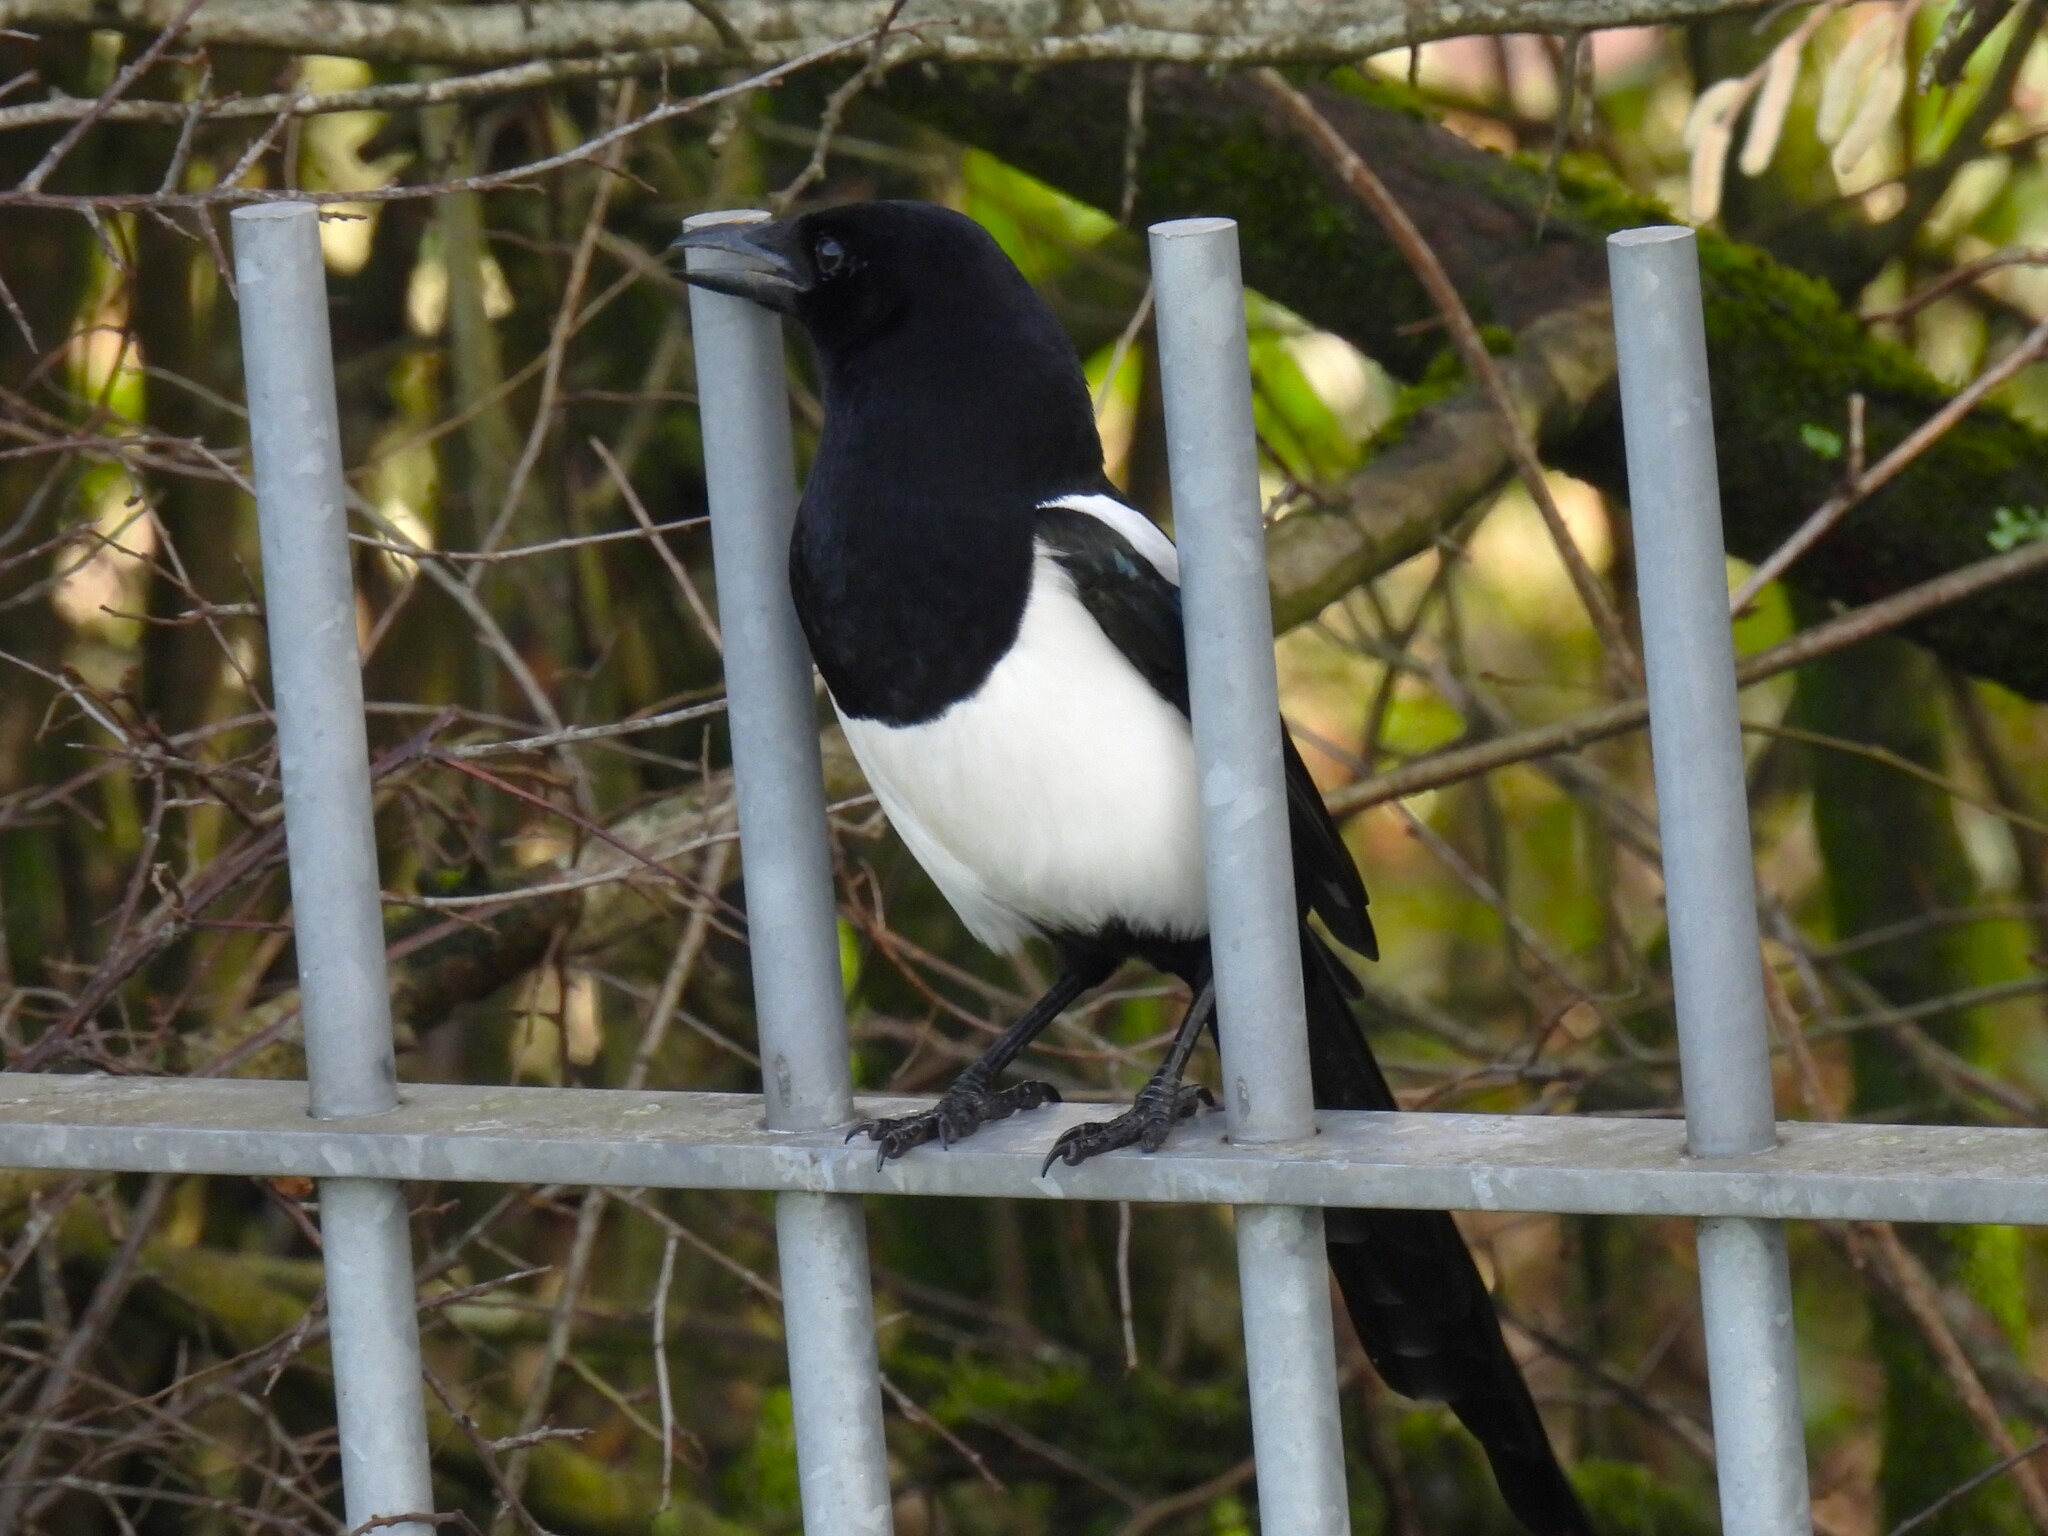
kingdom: Animalia
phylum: Chordata
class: Aves
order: Passeriformes
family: Corvidae
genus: Pica
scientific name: Pica pica
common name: Eurasian magpie
